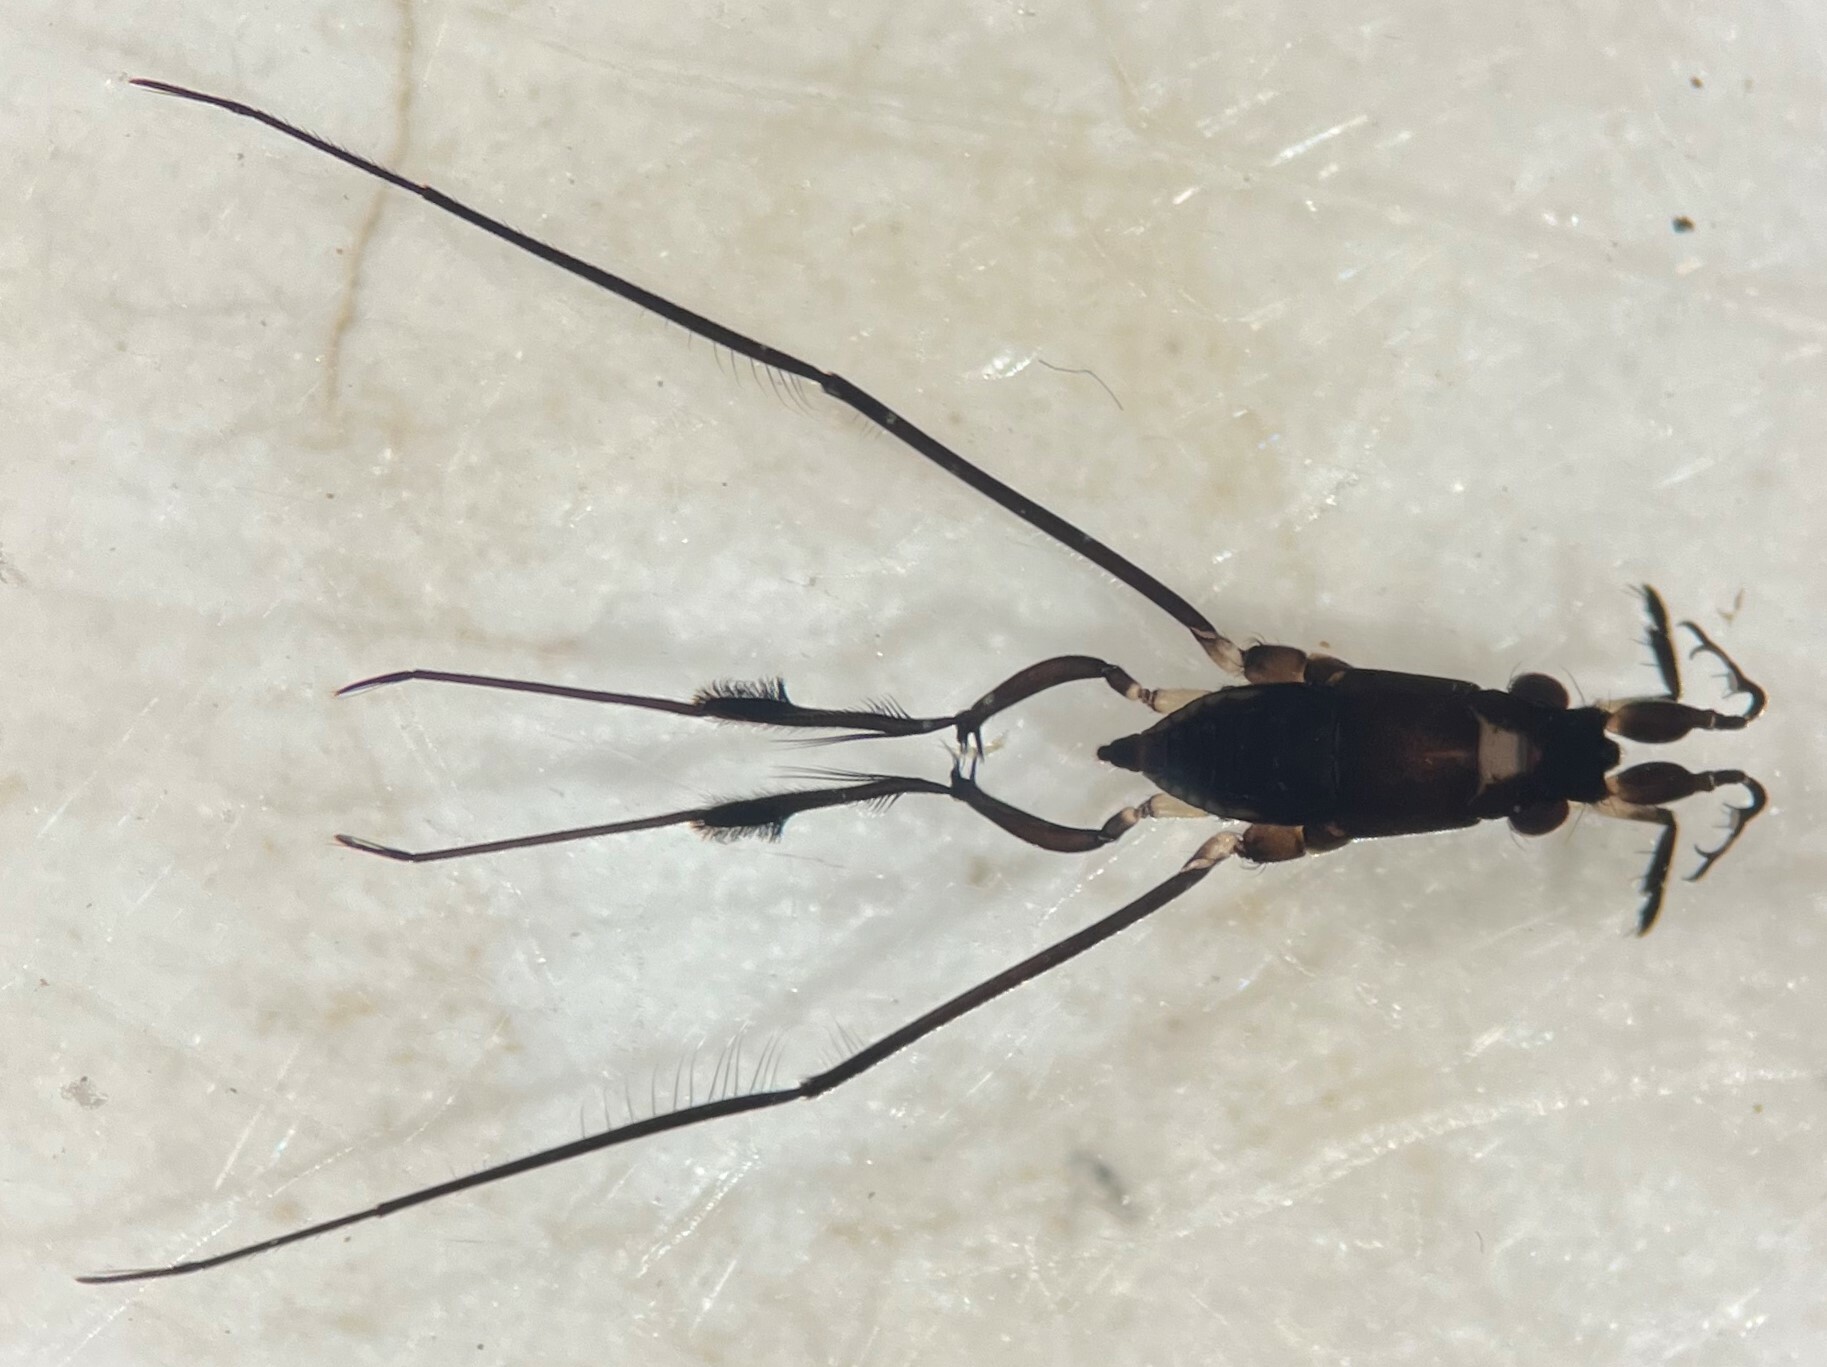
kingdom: Animalia
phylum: Arthropoda
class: Insecta
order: Hemiptera
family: Gerridae
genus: Rheumatobates
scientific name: Rheumatobates trulliger
